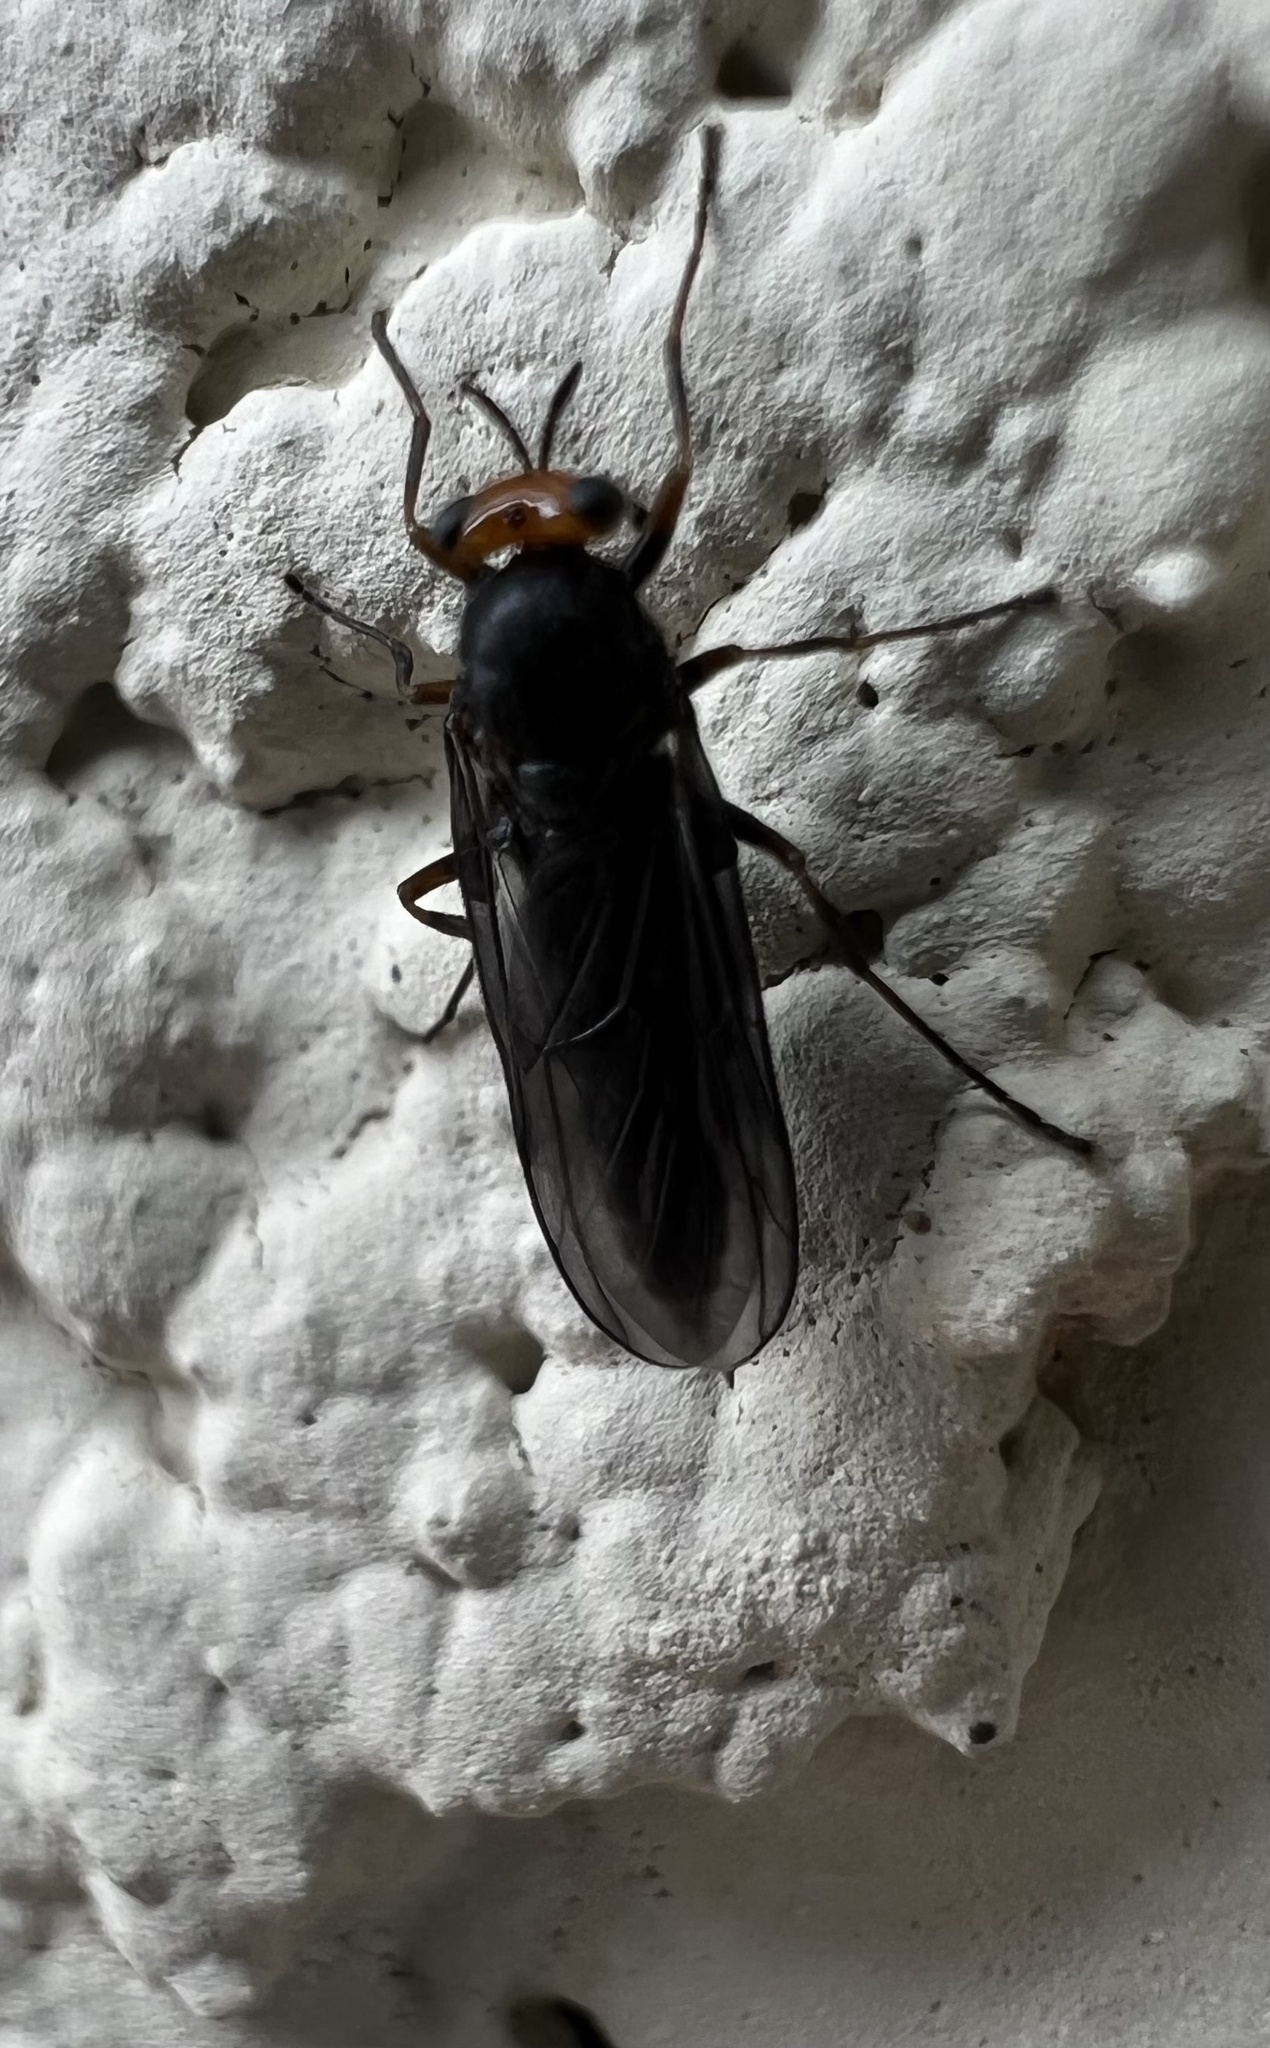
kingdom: Animalia
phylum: Arthropoda
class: Insecta
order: Diptera
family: Stratiomyidae
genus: Inopus
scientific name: Inopus rubriceps
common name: Soldier fly
